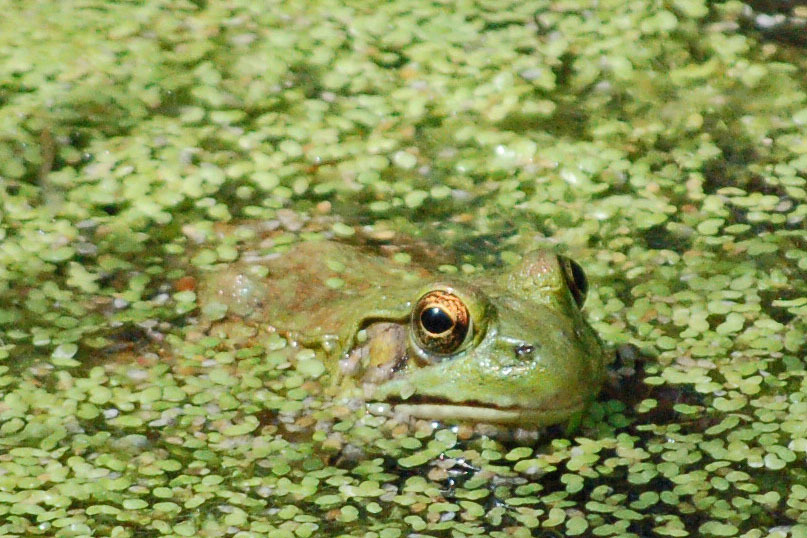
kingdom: Animalia
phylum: Chordata
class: Amphibia
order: Anura
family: Ranidae
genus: Lithobates
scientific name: Lithobates clamitans
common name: Green frog
